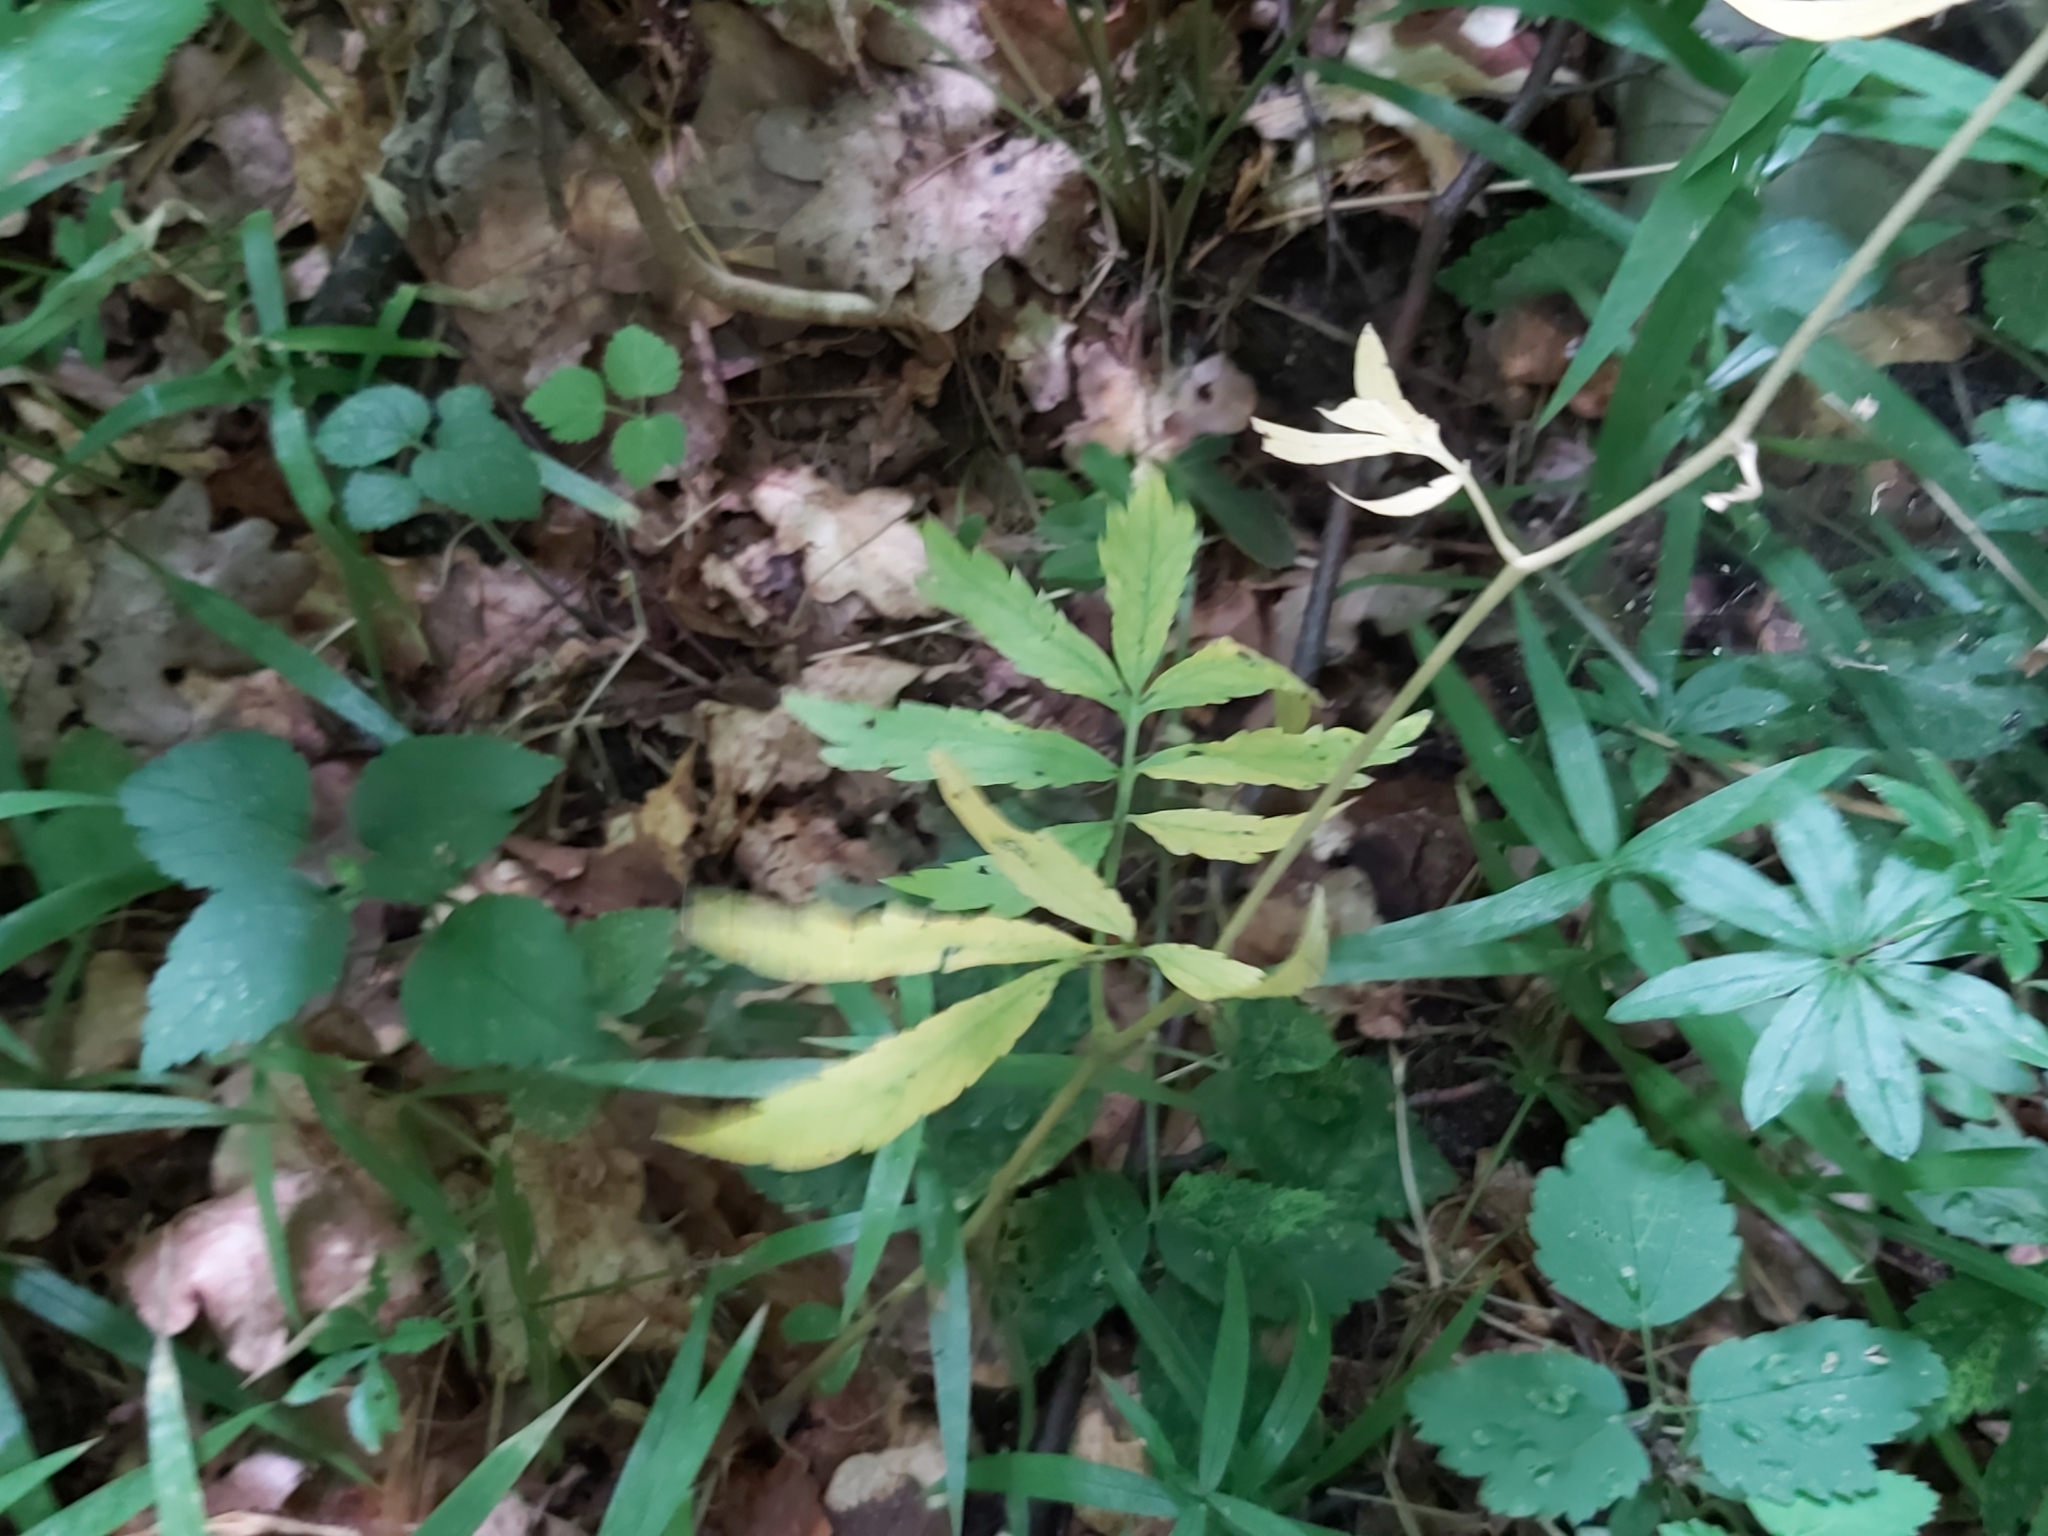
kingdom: Plantae
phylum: Tracheophyta
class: Magnoliopsida
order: Brassicales
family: Brassicaceae
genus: Cardamine
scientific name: Cardamine bulbifera
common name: Coralroot bittercress
